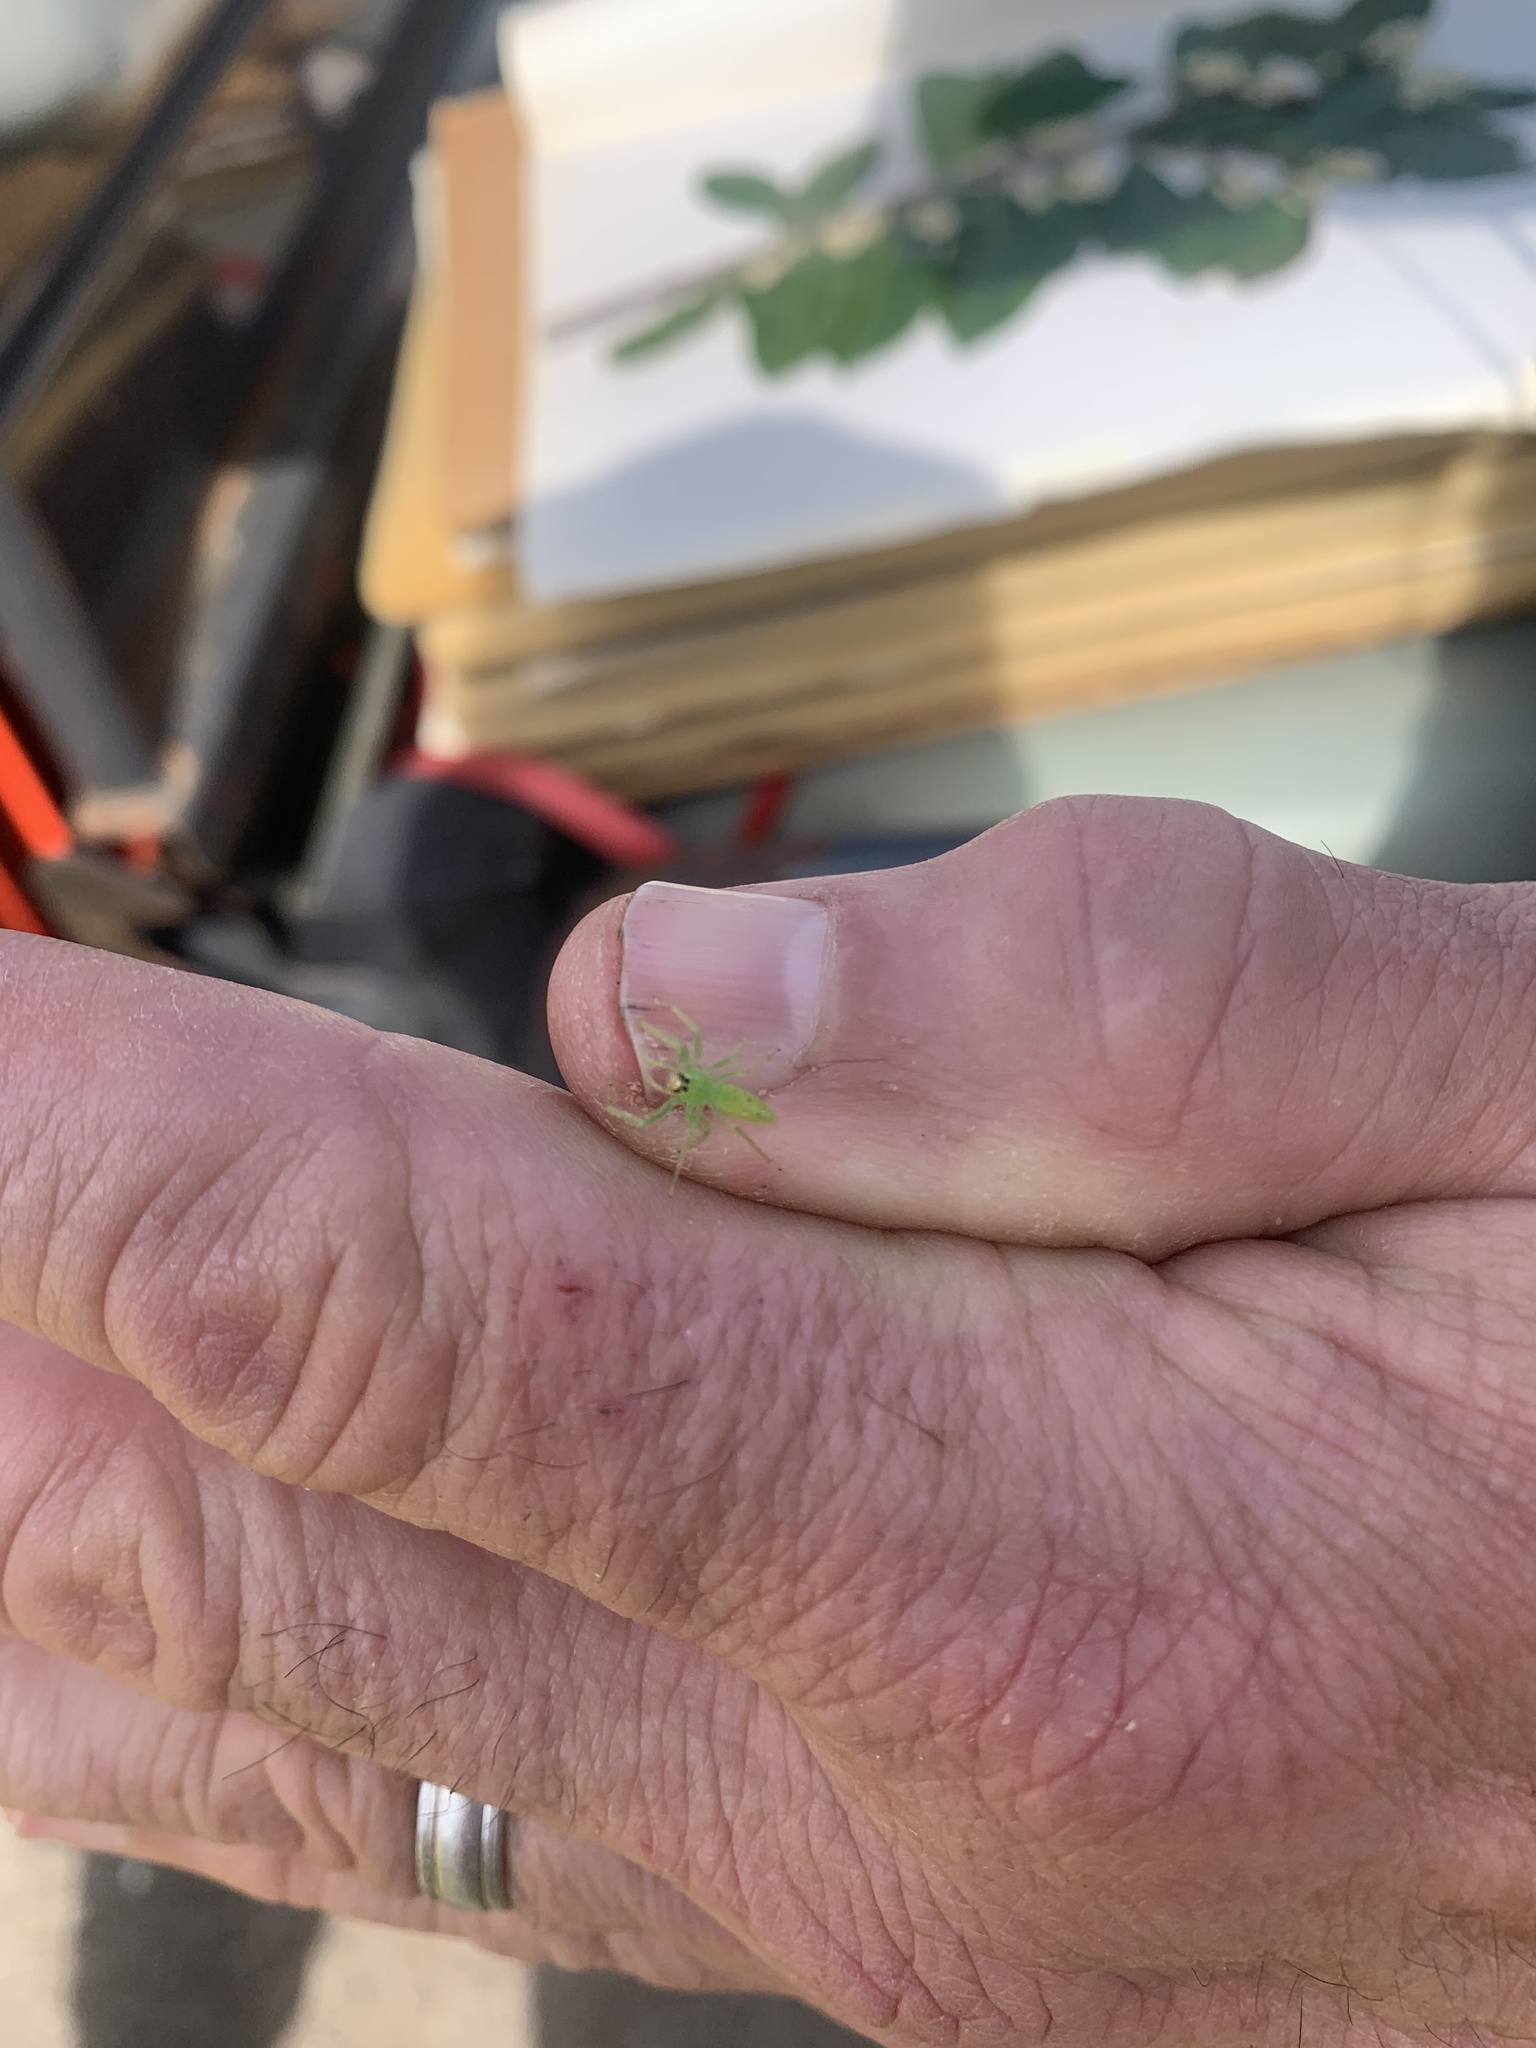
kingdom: Animalia
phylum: Arthropoda
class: Arachnida
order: Araneae
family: Salticidae
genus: Lyssomanes
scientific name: Lyssomanes viridis
